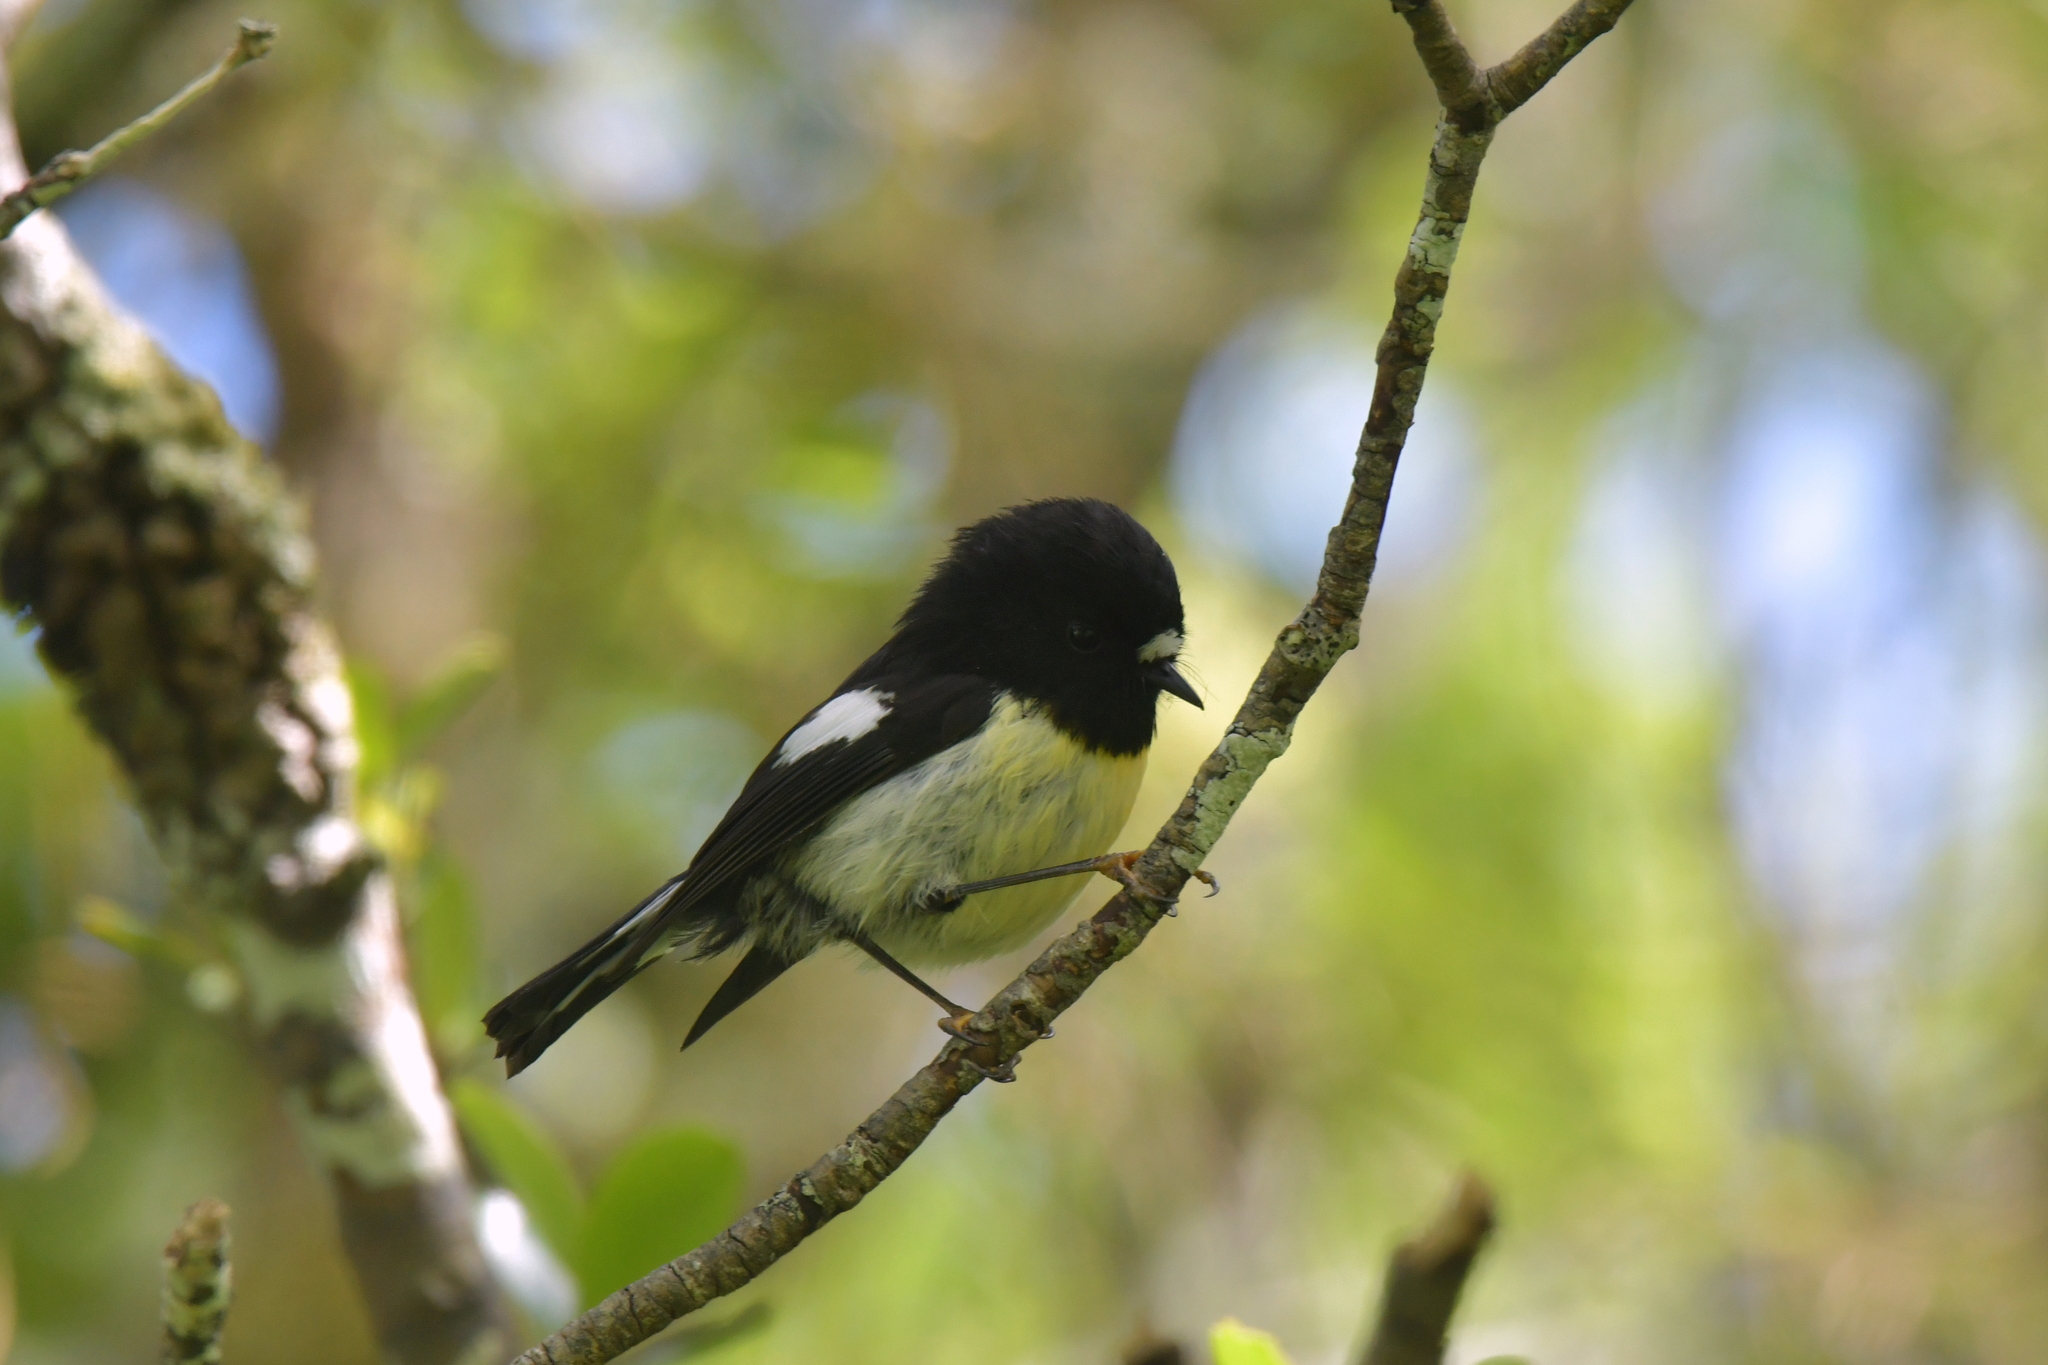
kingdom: Animalia
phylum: Chordata
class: Aves
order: Passeriformes
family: Petroicidae
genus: Petroica
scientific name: Petroica macrocephala
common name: Tomtit
